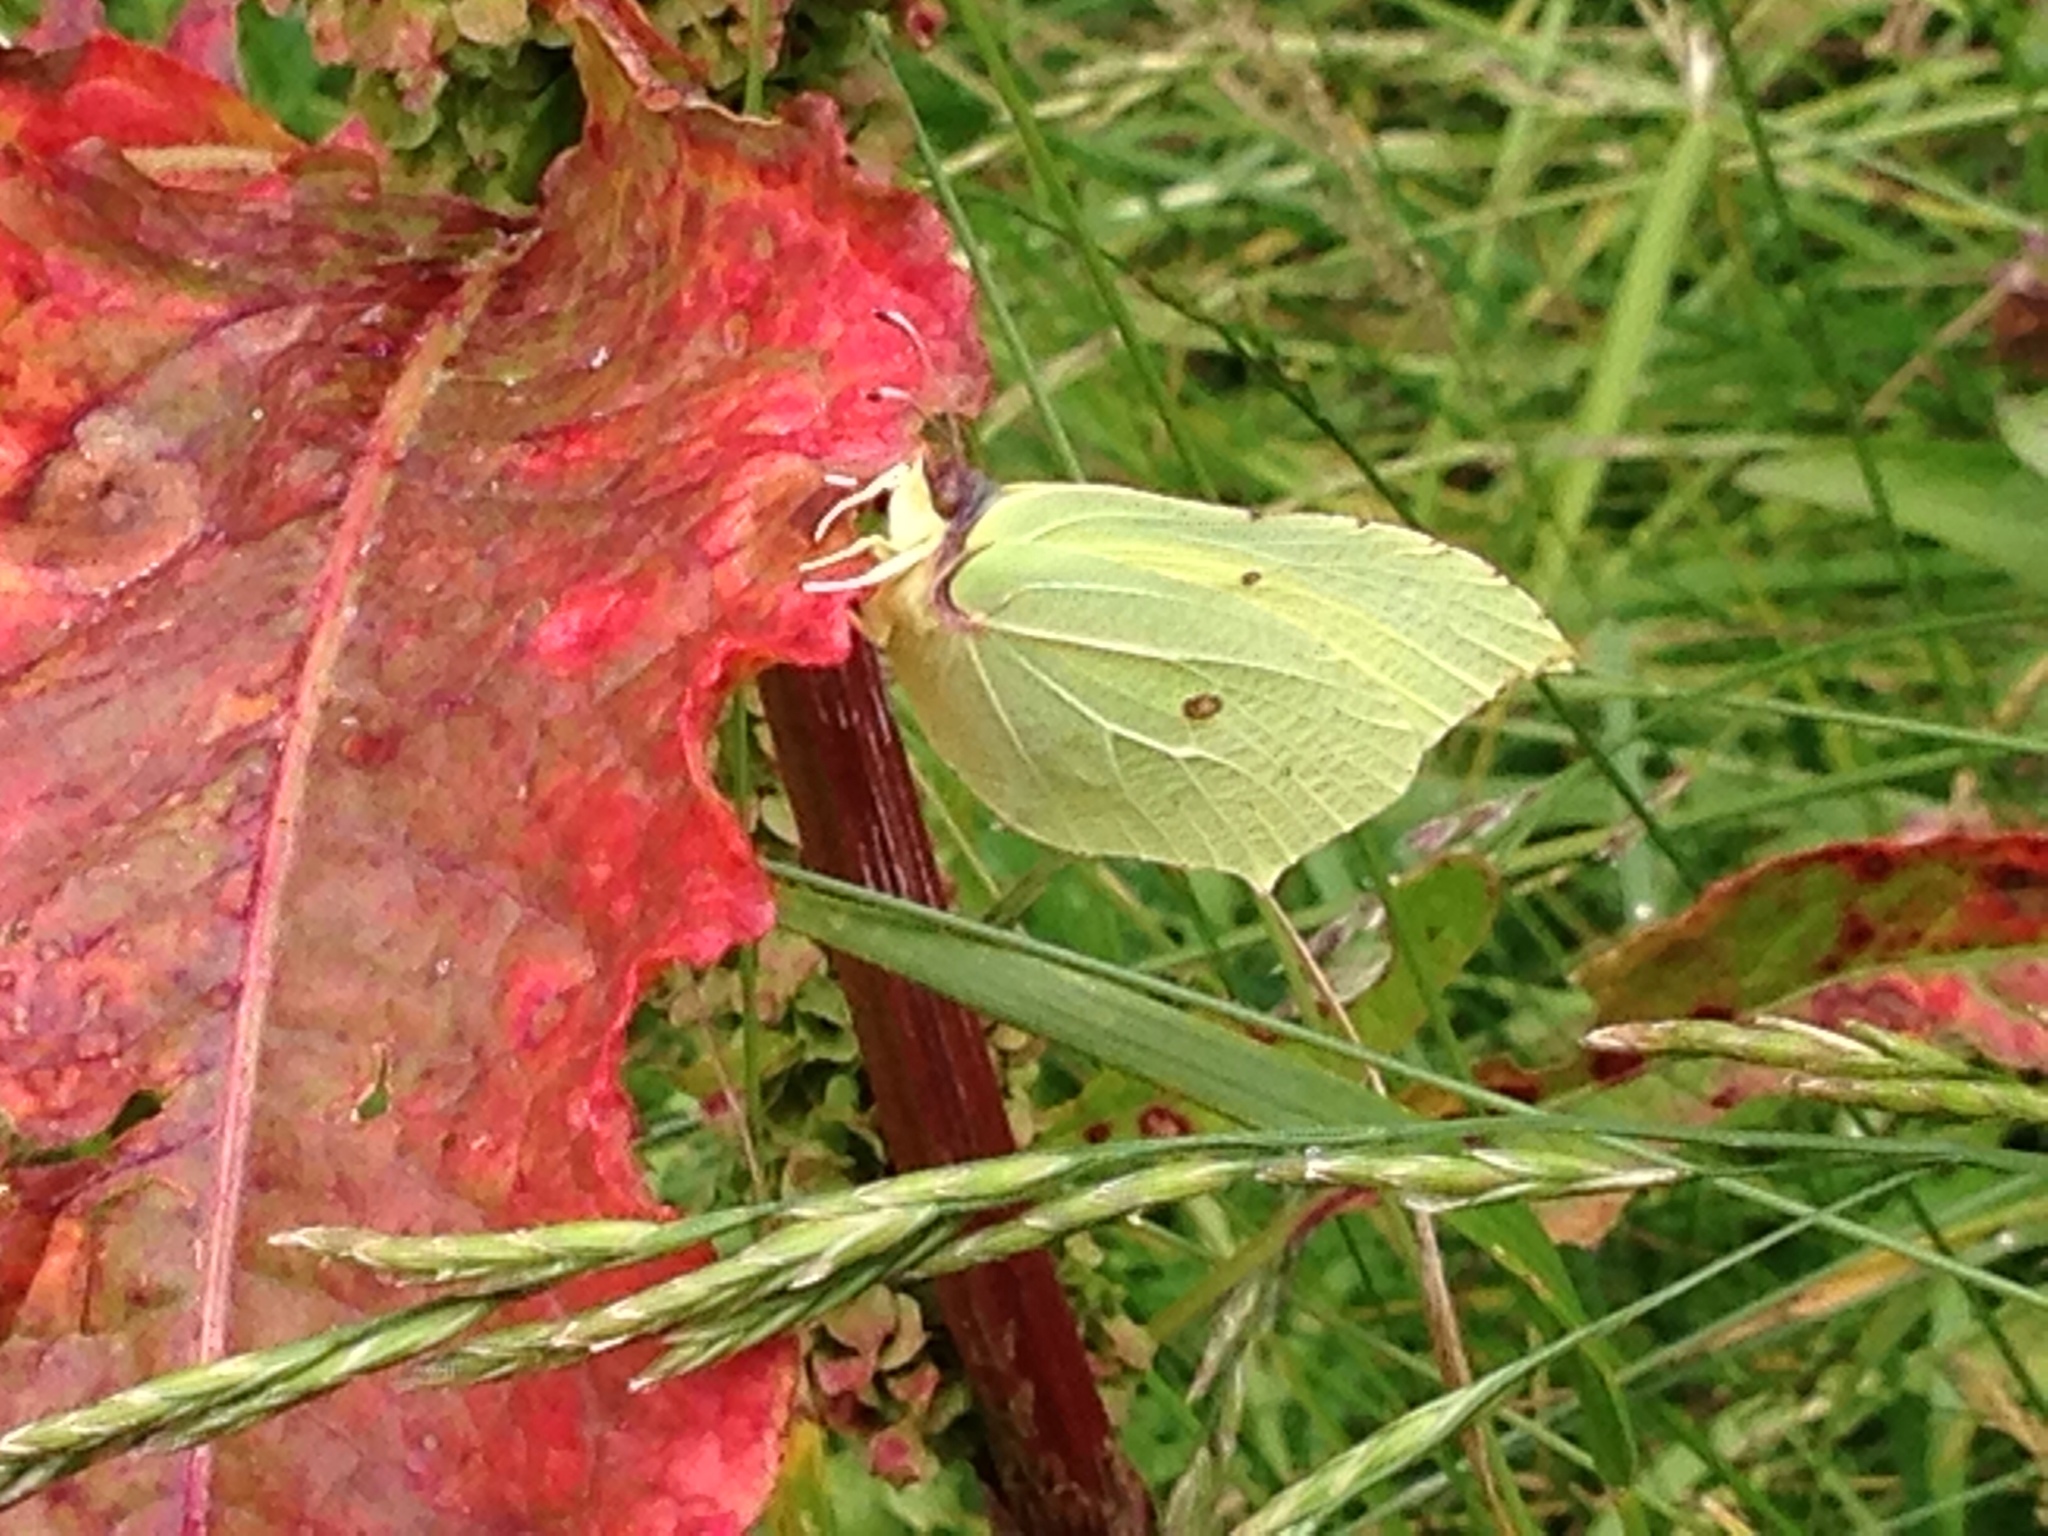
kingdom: Animalia
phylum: Arthropoda
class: Insecta
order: Lepidoptera
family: Pieridae
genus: Gonepteryx
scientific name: Gonepteryx rhamni
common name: Brimstone
